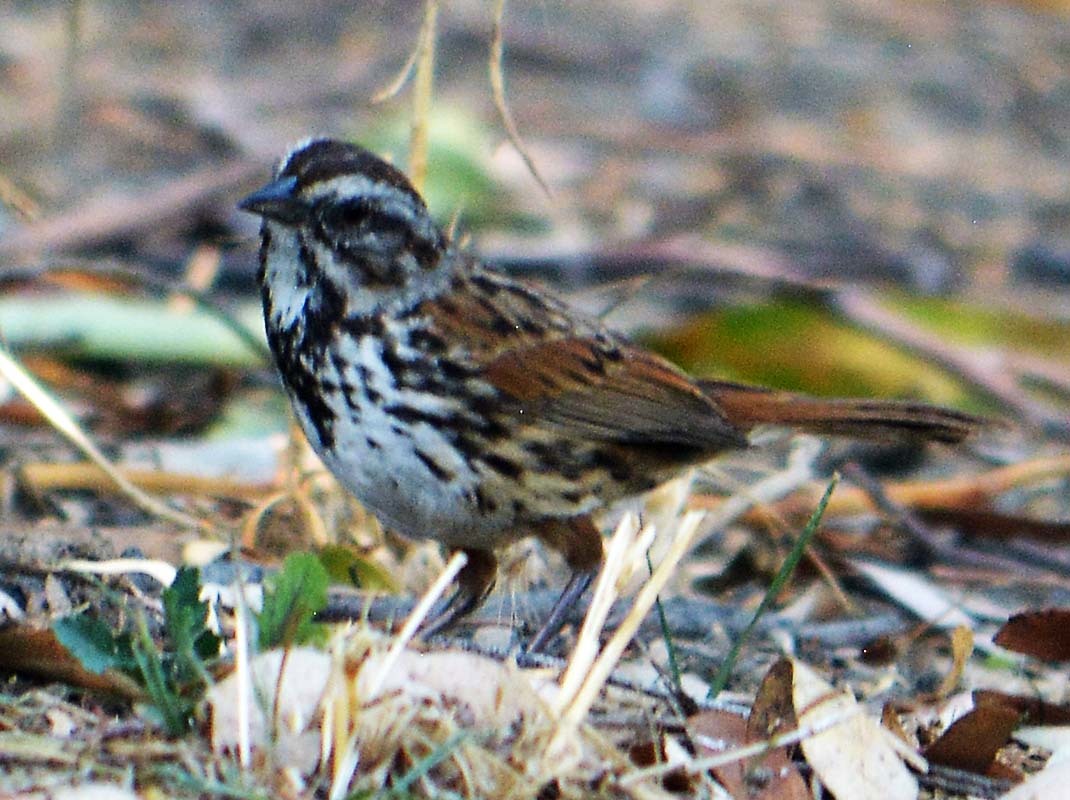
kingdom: Animalia
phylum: Chordata
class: Aves
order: Passeriformes
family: Passerellidae
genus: Melospiza
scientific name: Melospiza melodia
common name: Song sparrow
